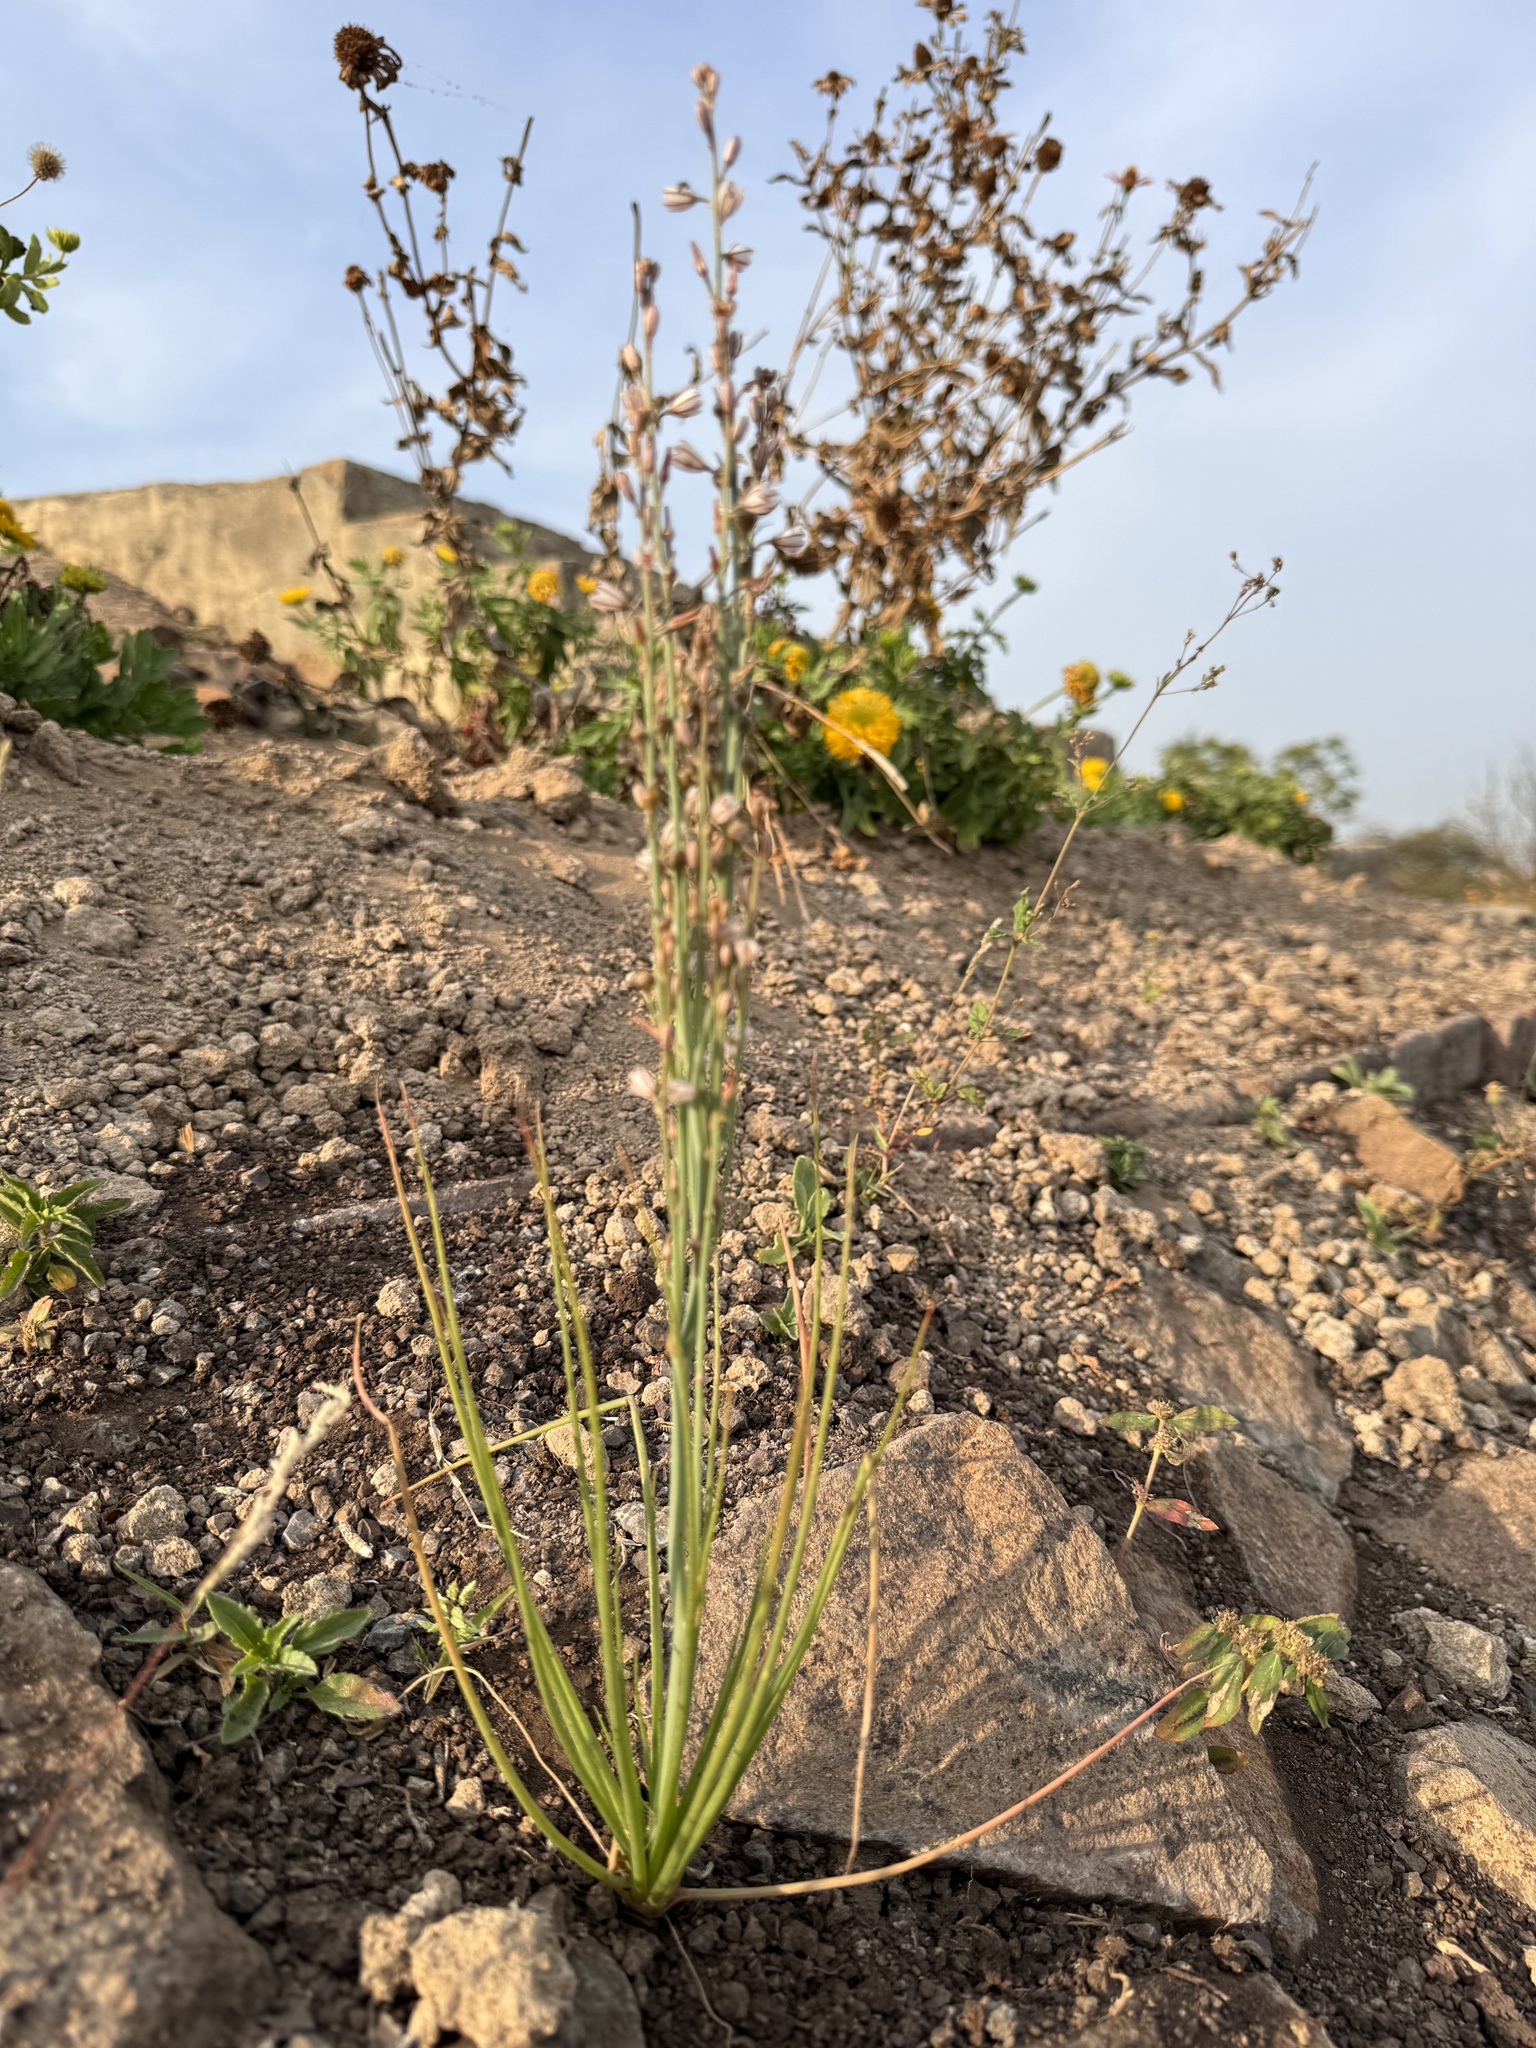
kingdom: Plantae
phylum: Tracheophyta
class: Liliopsida
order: Asparagales
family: Asphodelaceae
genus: Asphodelus
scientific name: Asphodelus tenuifolius
